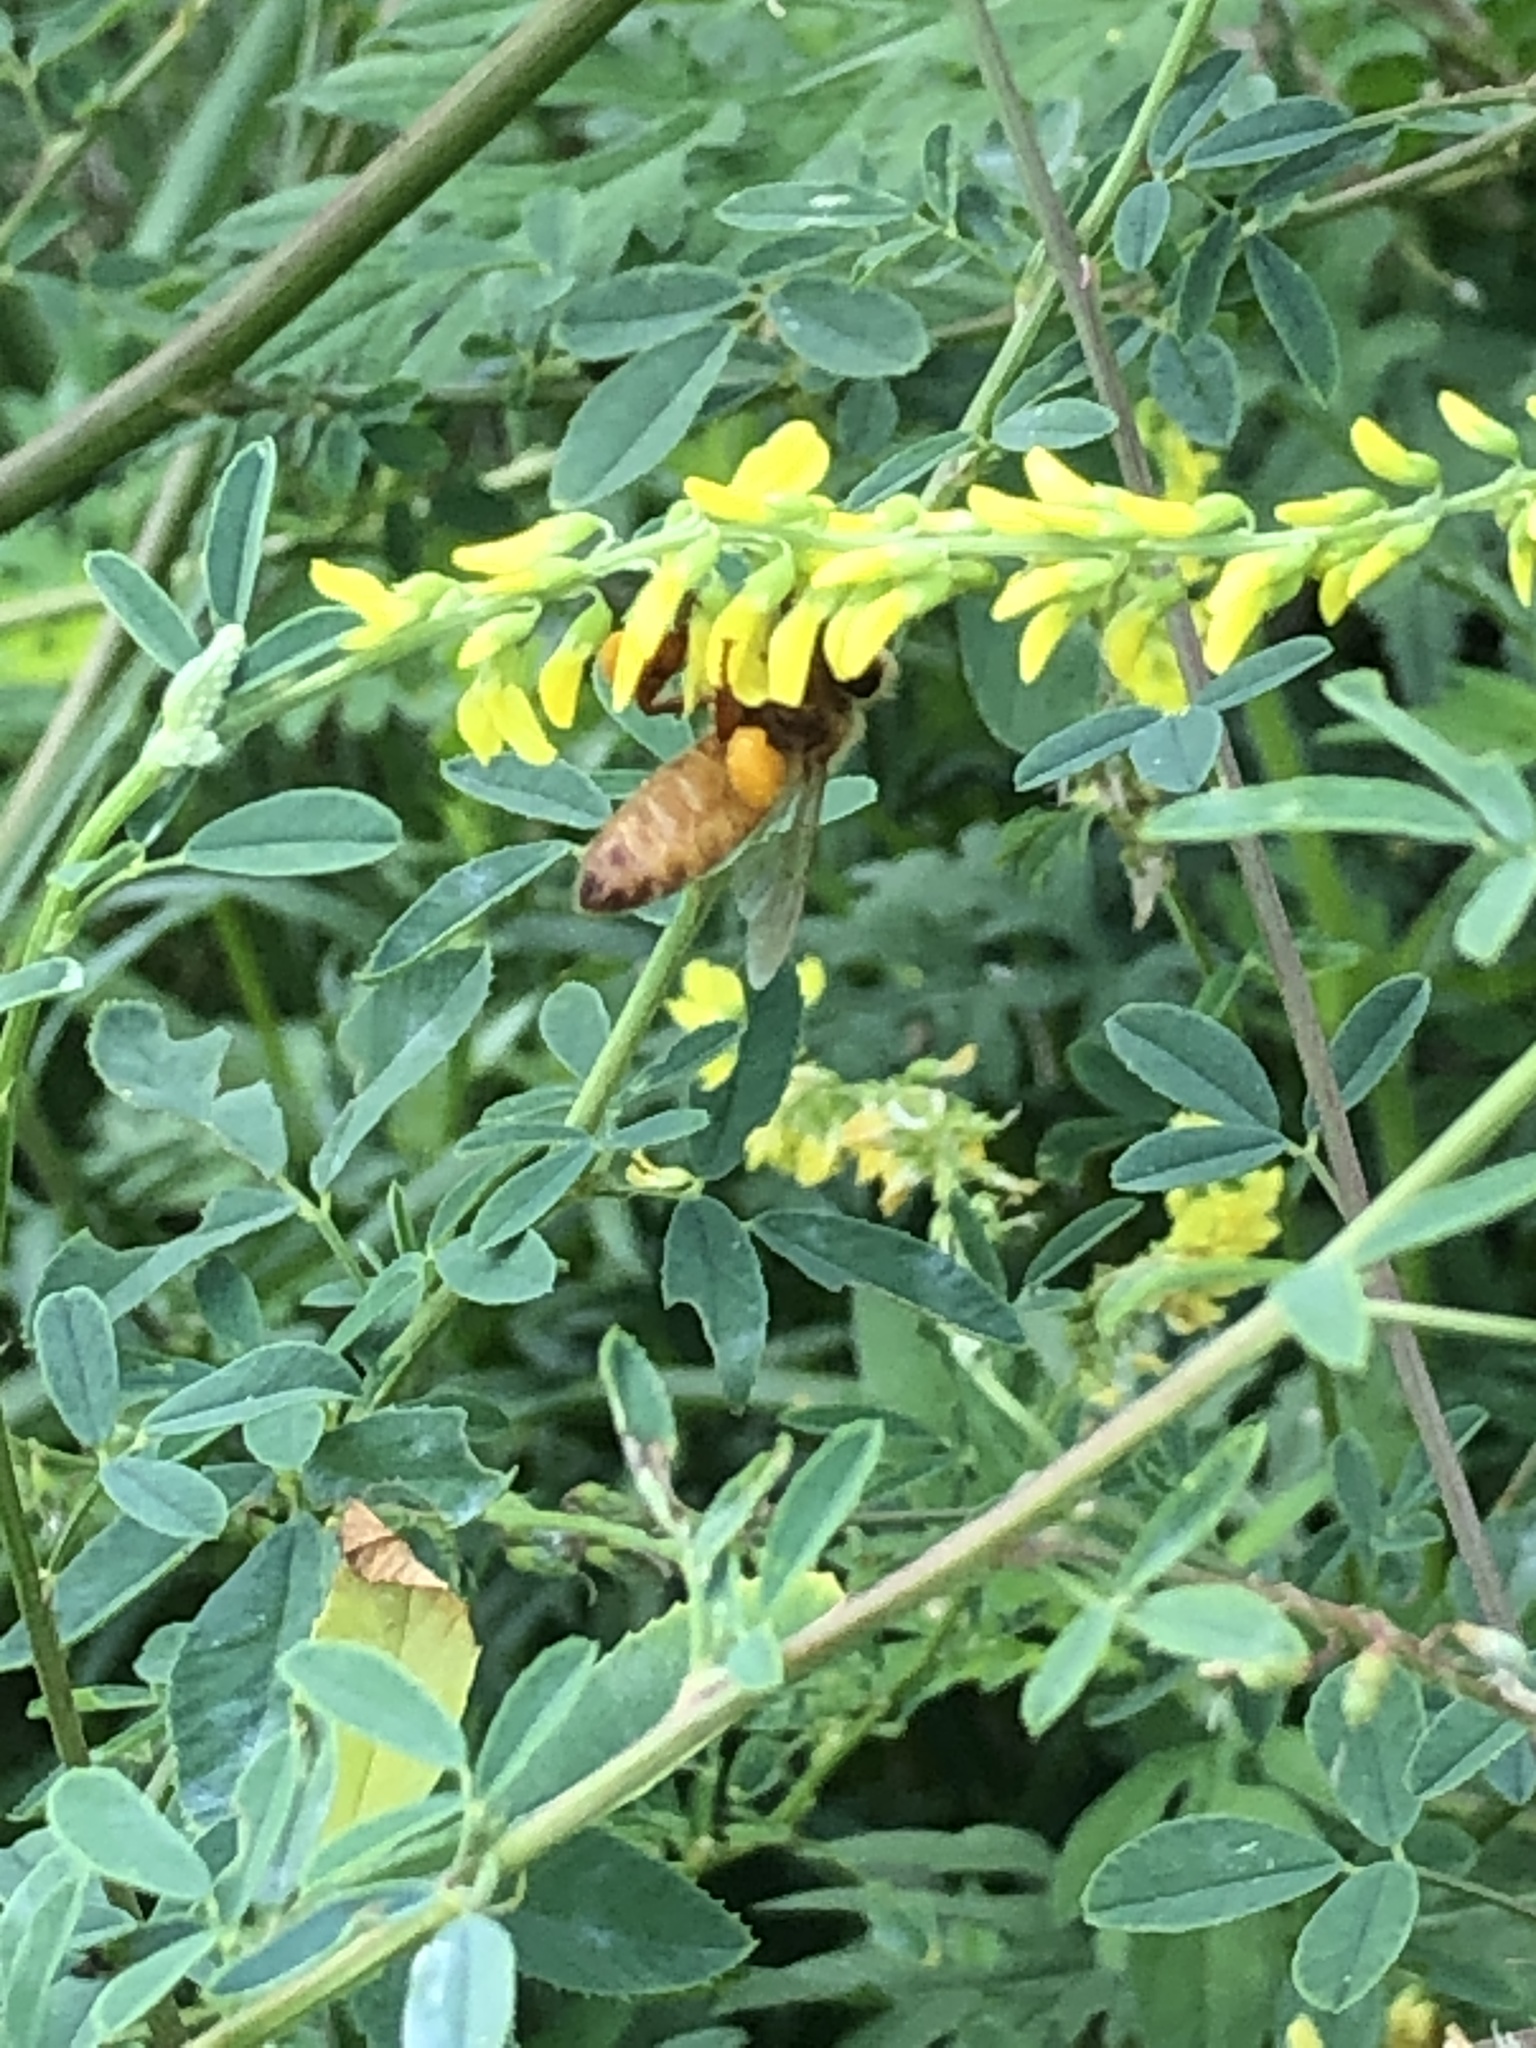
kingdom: Animalia
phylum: Arthropoda
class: Insecta
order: Hymenoptera
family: Apidae
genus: Apis
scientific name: Apis mellifera
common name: Honey bee
